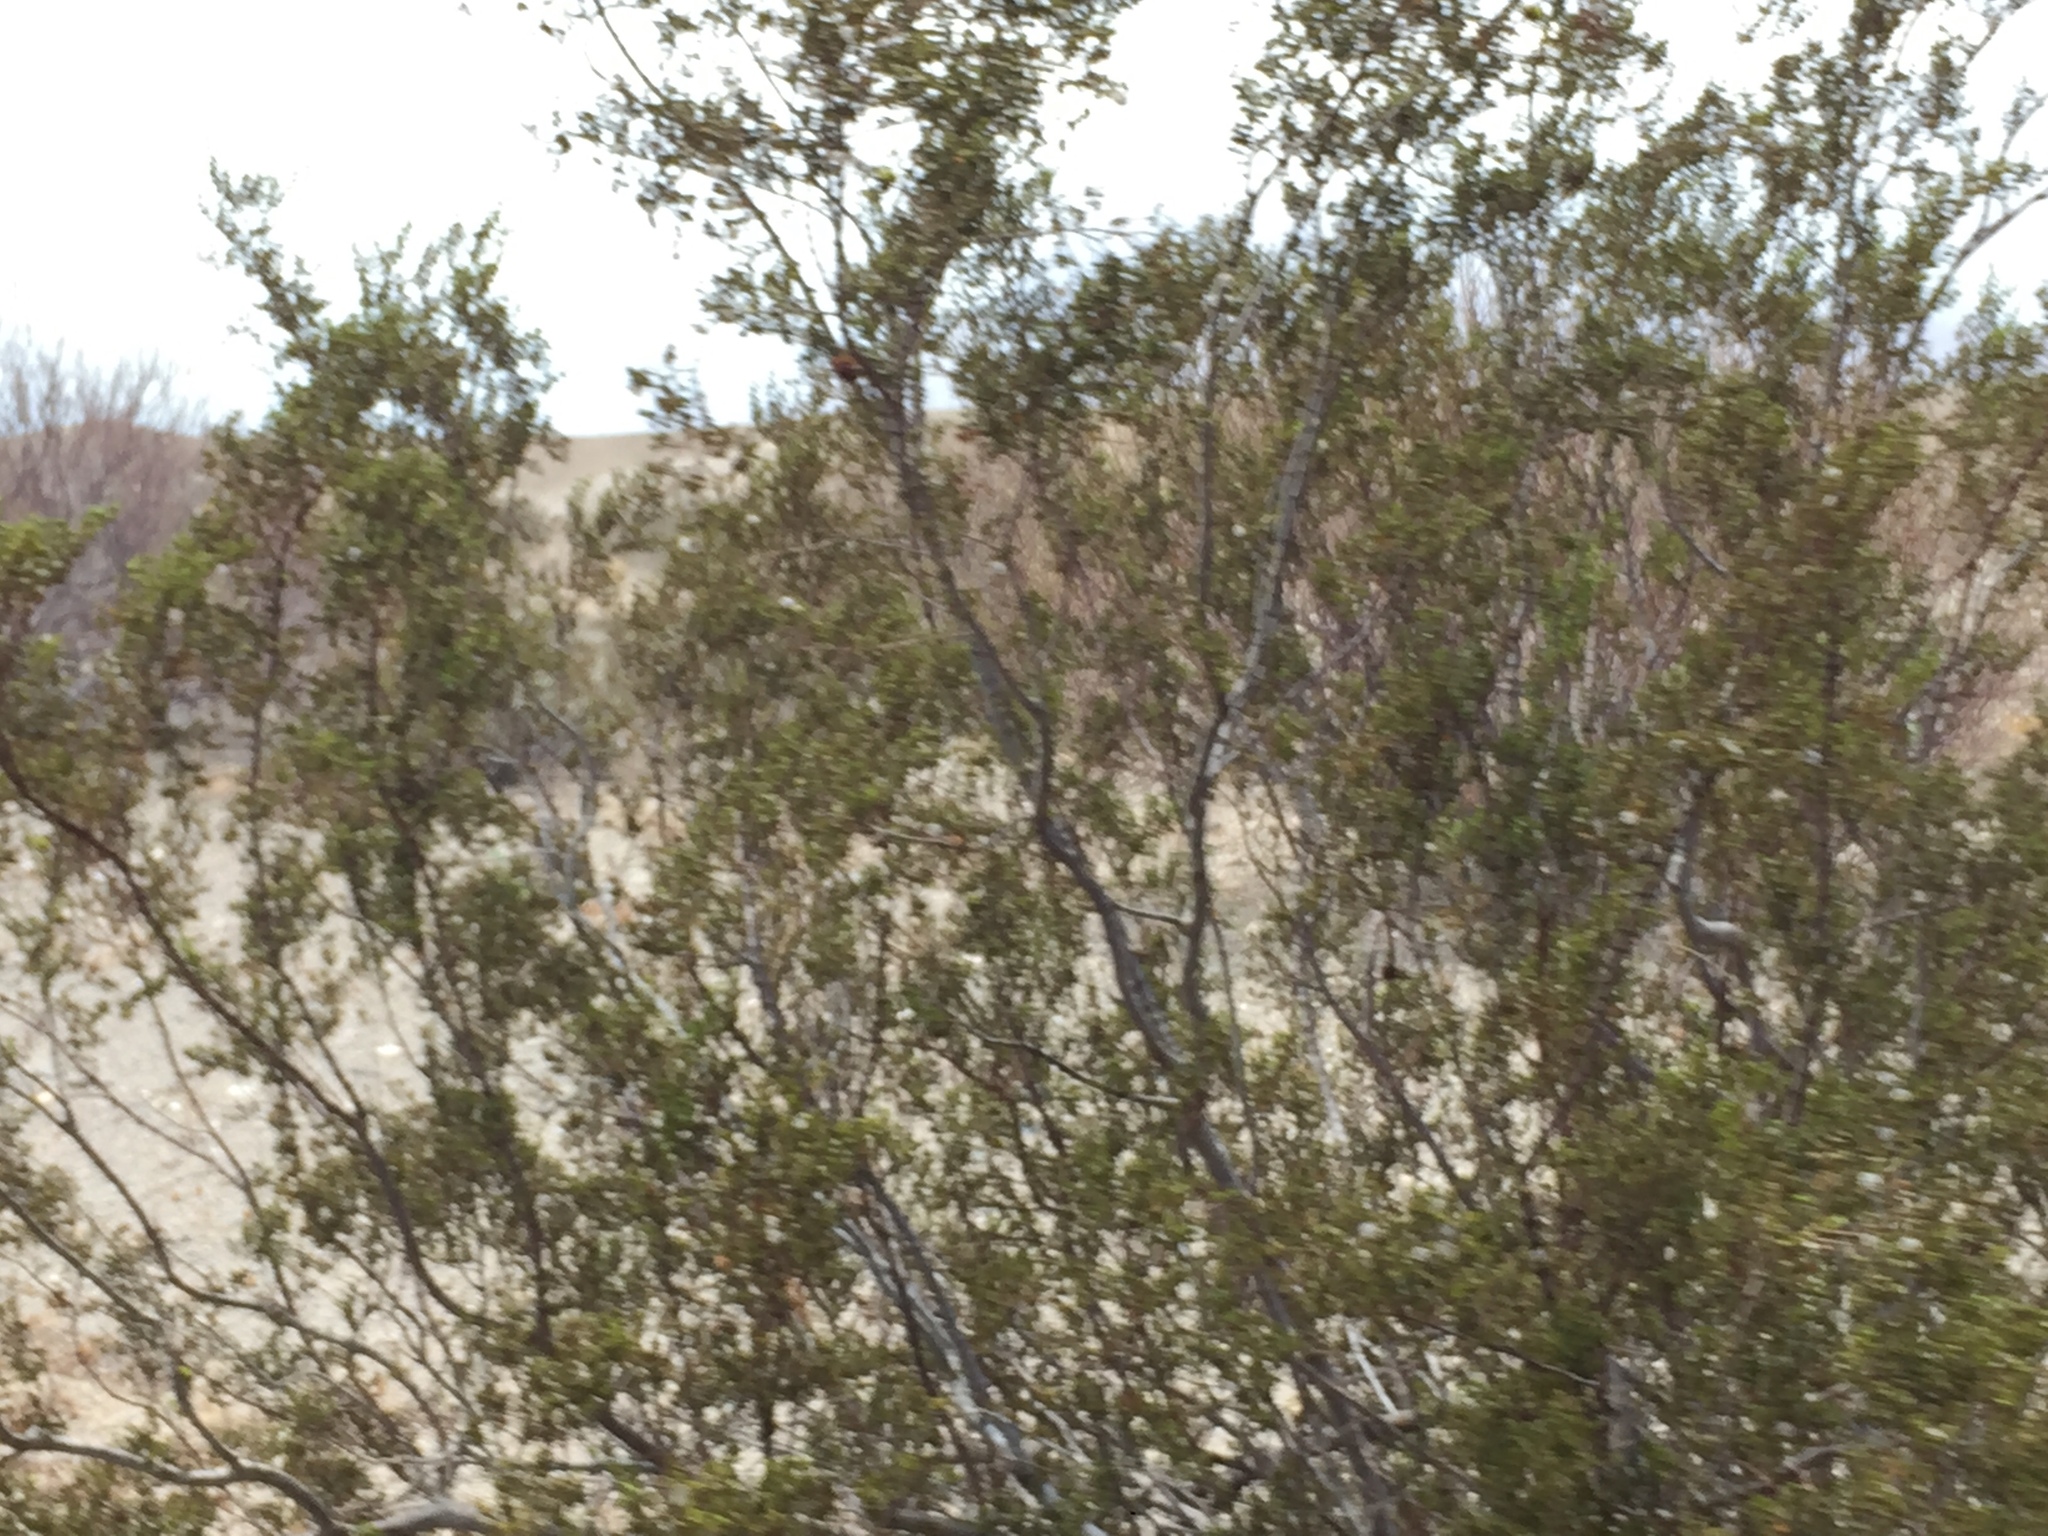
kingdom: Plantae
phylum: Tracheophyta
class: Magnoliopsida
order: Zygophyllales
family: Zygophyllaceae
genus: Larrea
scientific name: Larrea tridentata
